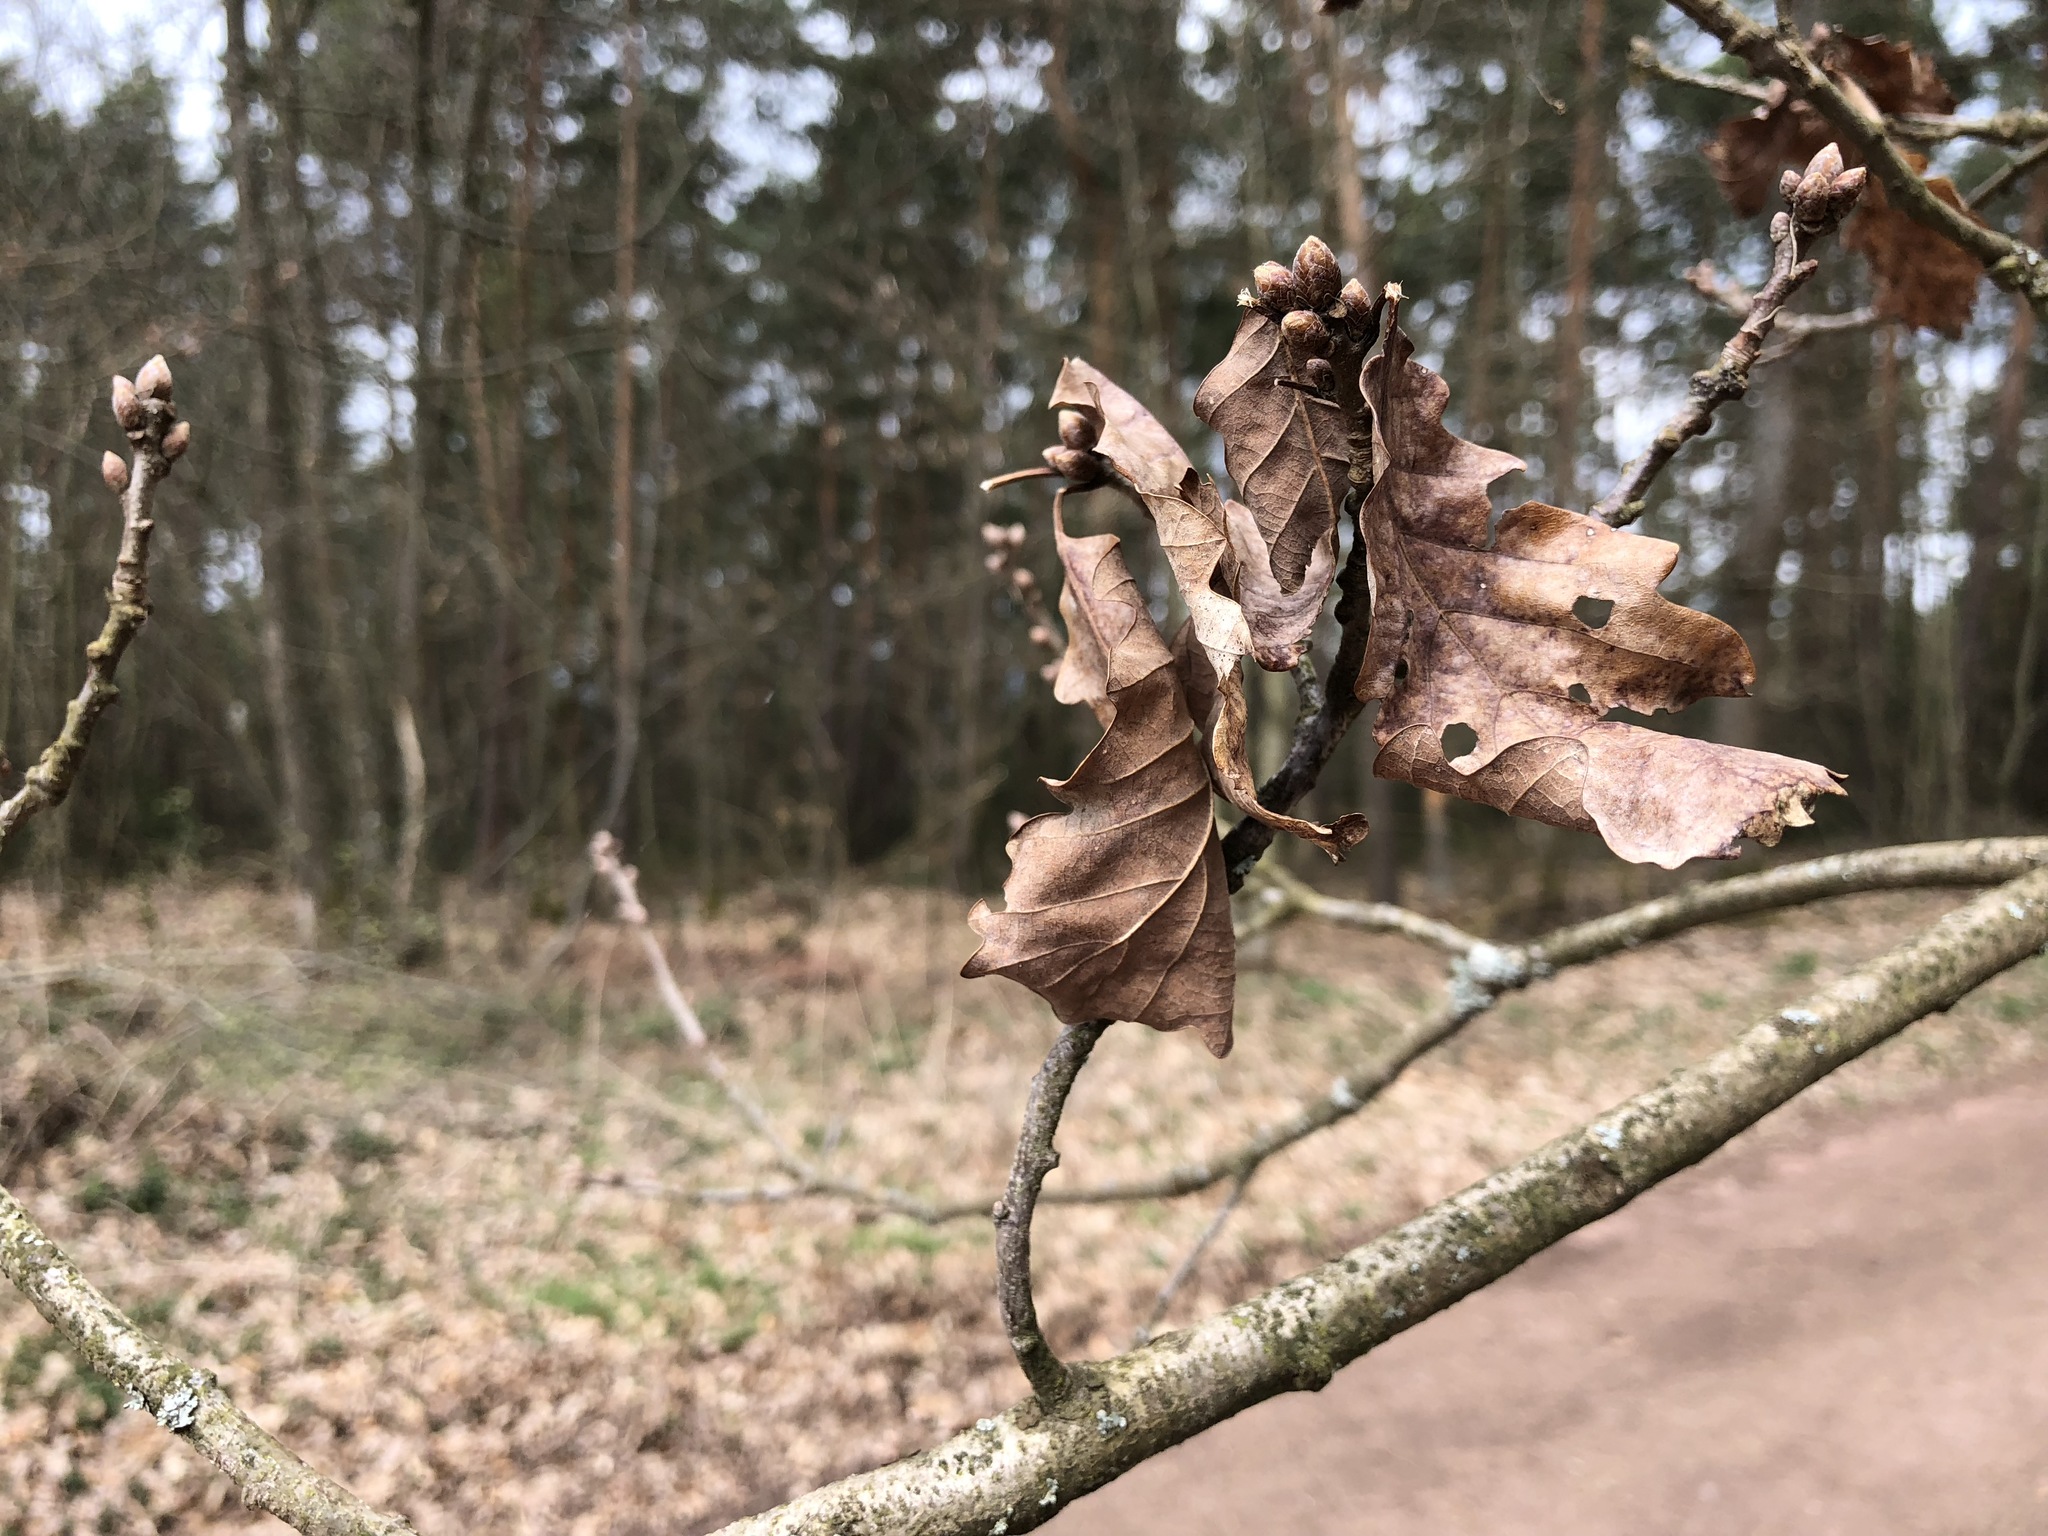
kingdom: Plantae
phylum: Tracheophyta
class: Magnoliopsida
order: Fagales
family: Fagaceae
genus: Quercus
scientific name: Quercus robur
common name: Pedunculate oak
